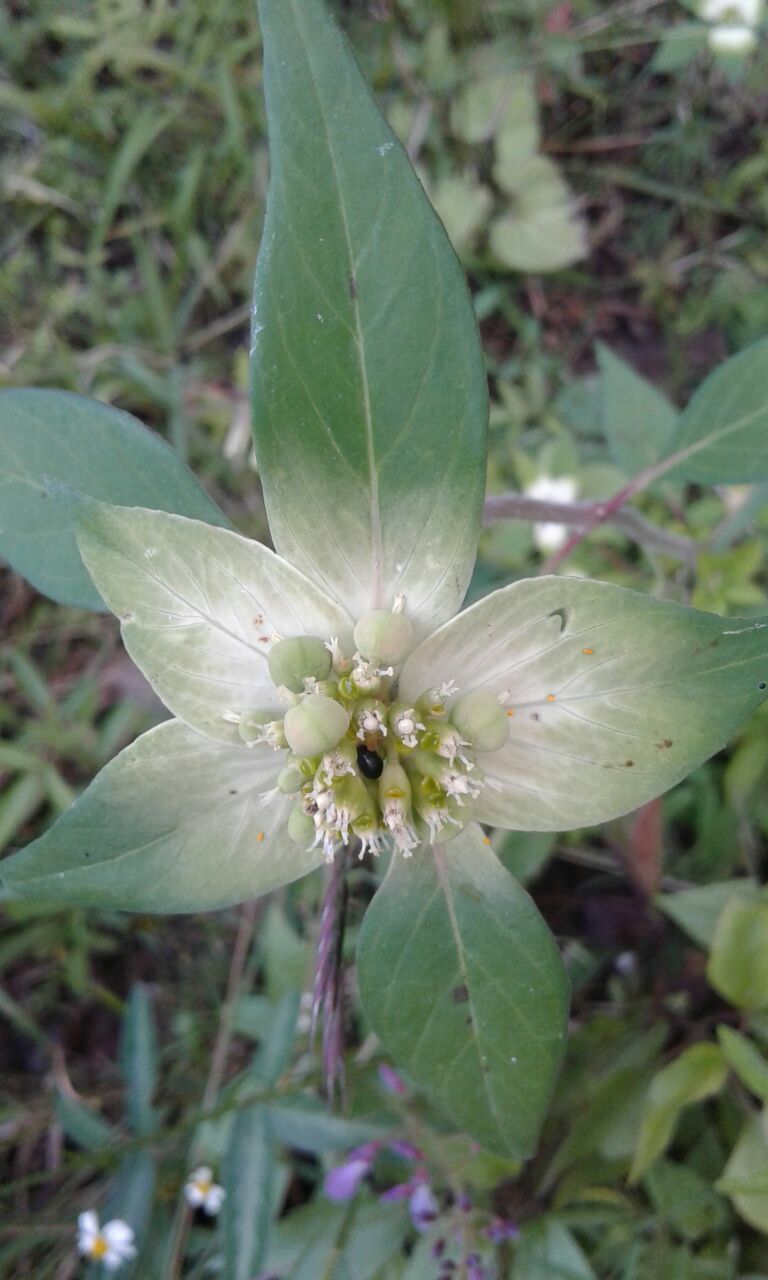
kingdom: Plantae
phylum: Tracheophyta
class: Magnoliopsida
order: Malpighiales
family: Euphorbiaceae
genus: Euphorbia
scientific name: Euphorbia schiedeana
